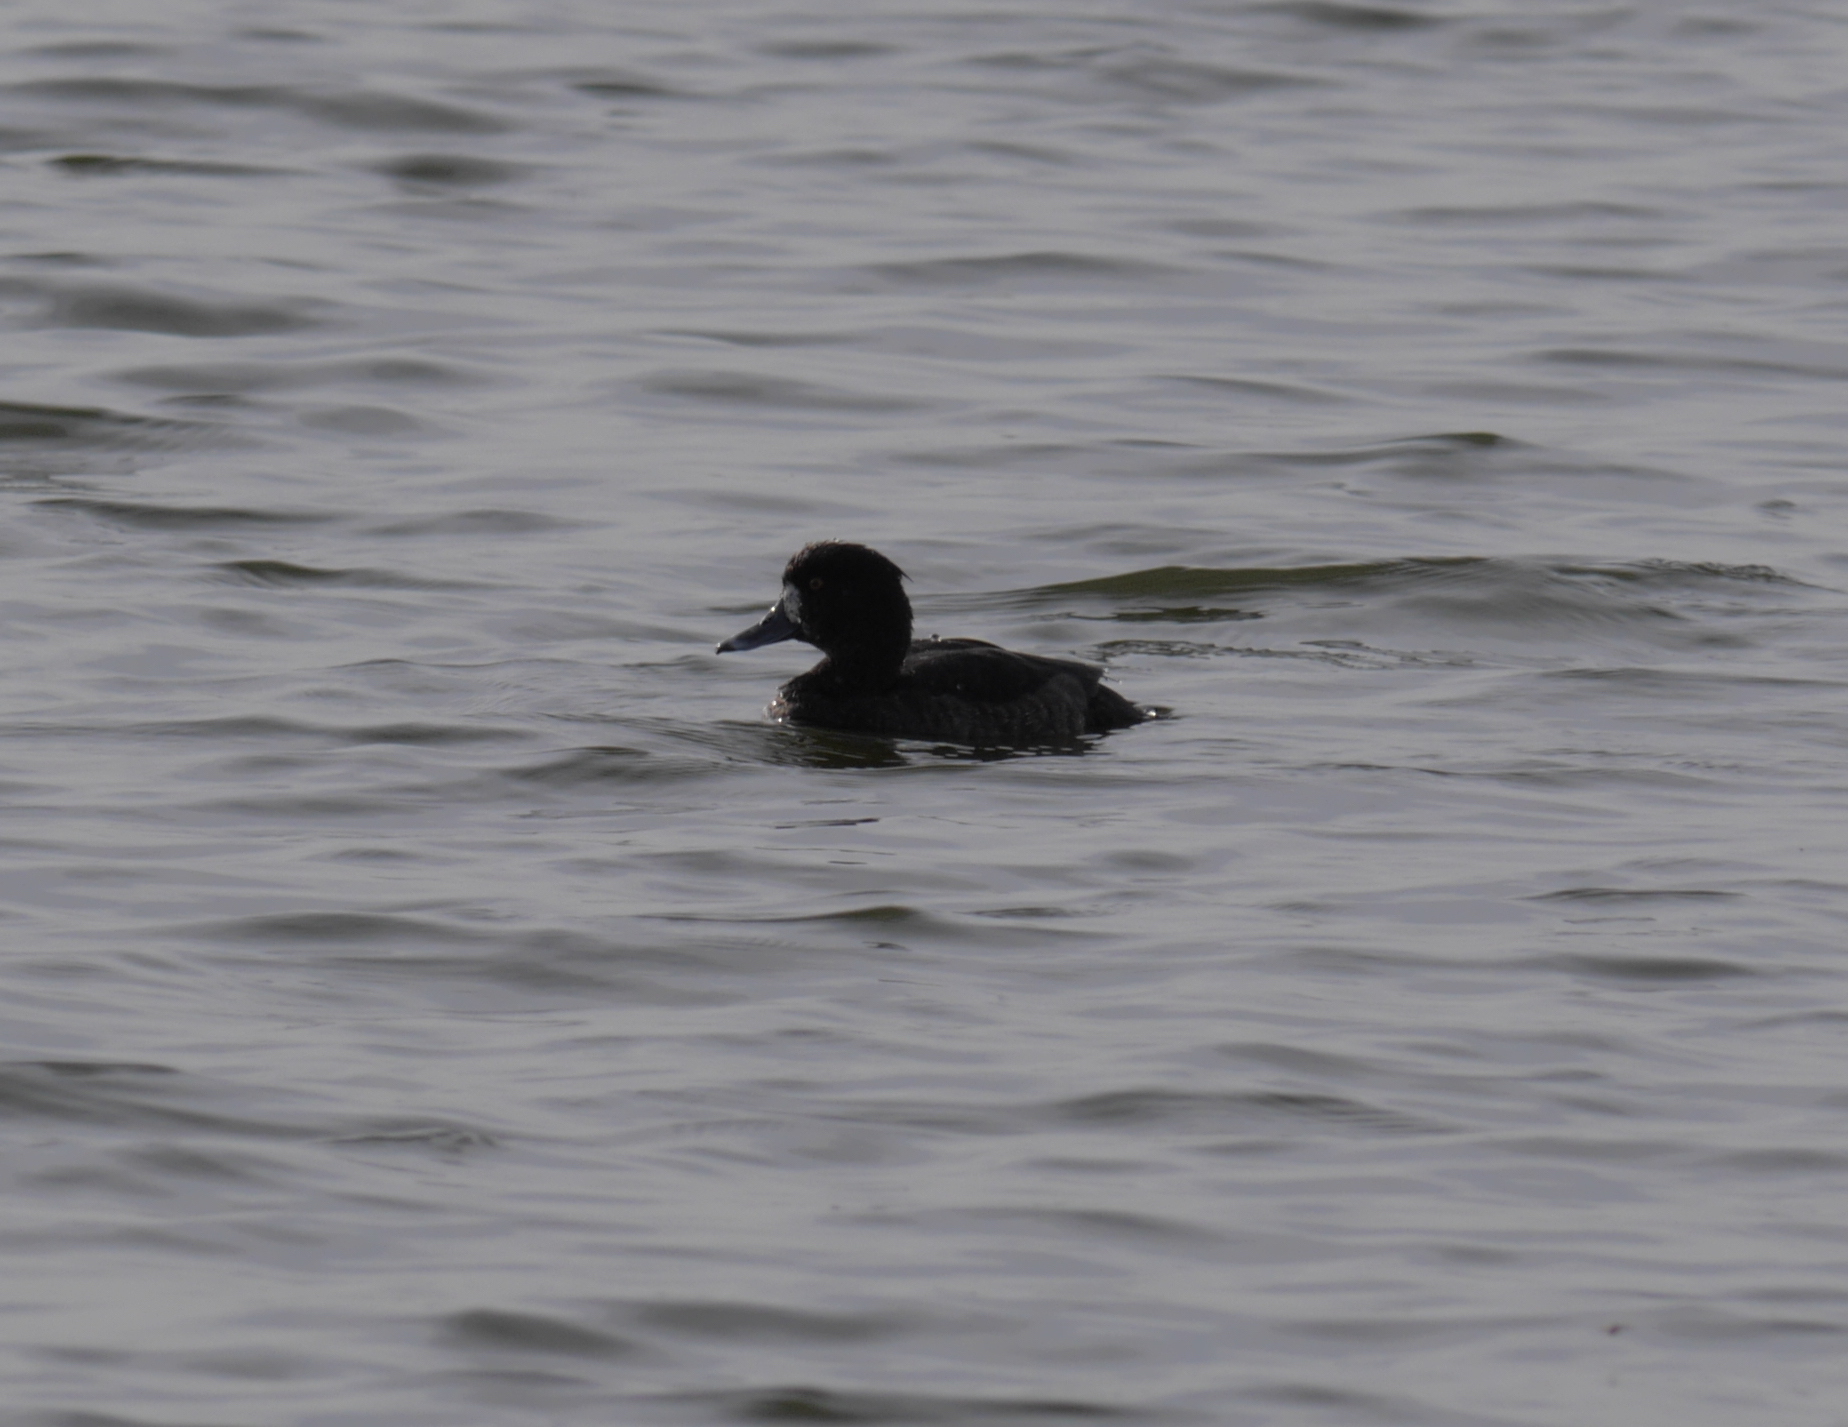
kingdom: Animalia
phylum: Chordata
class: Aves
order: Anseriformes
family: Anatidae
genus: Aythya
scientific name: Aythya fuligula
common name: Tufted duck
